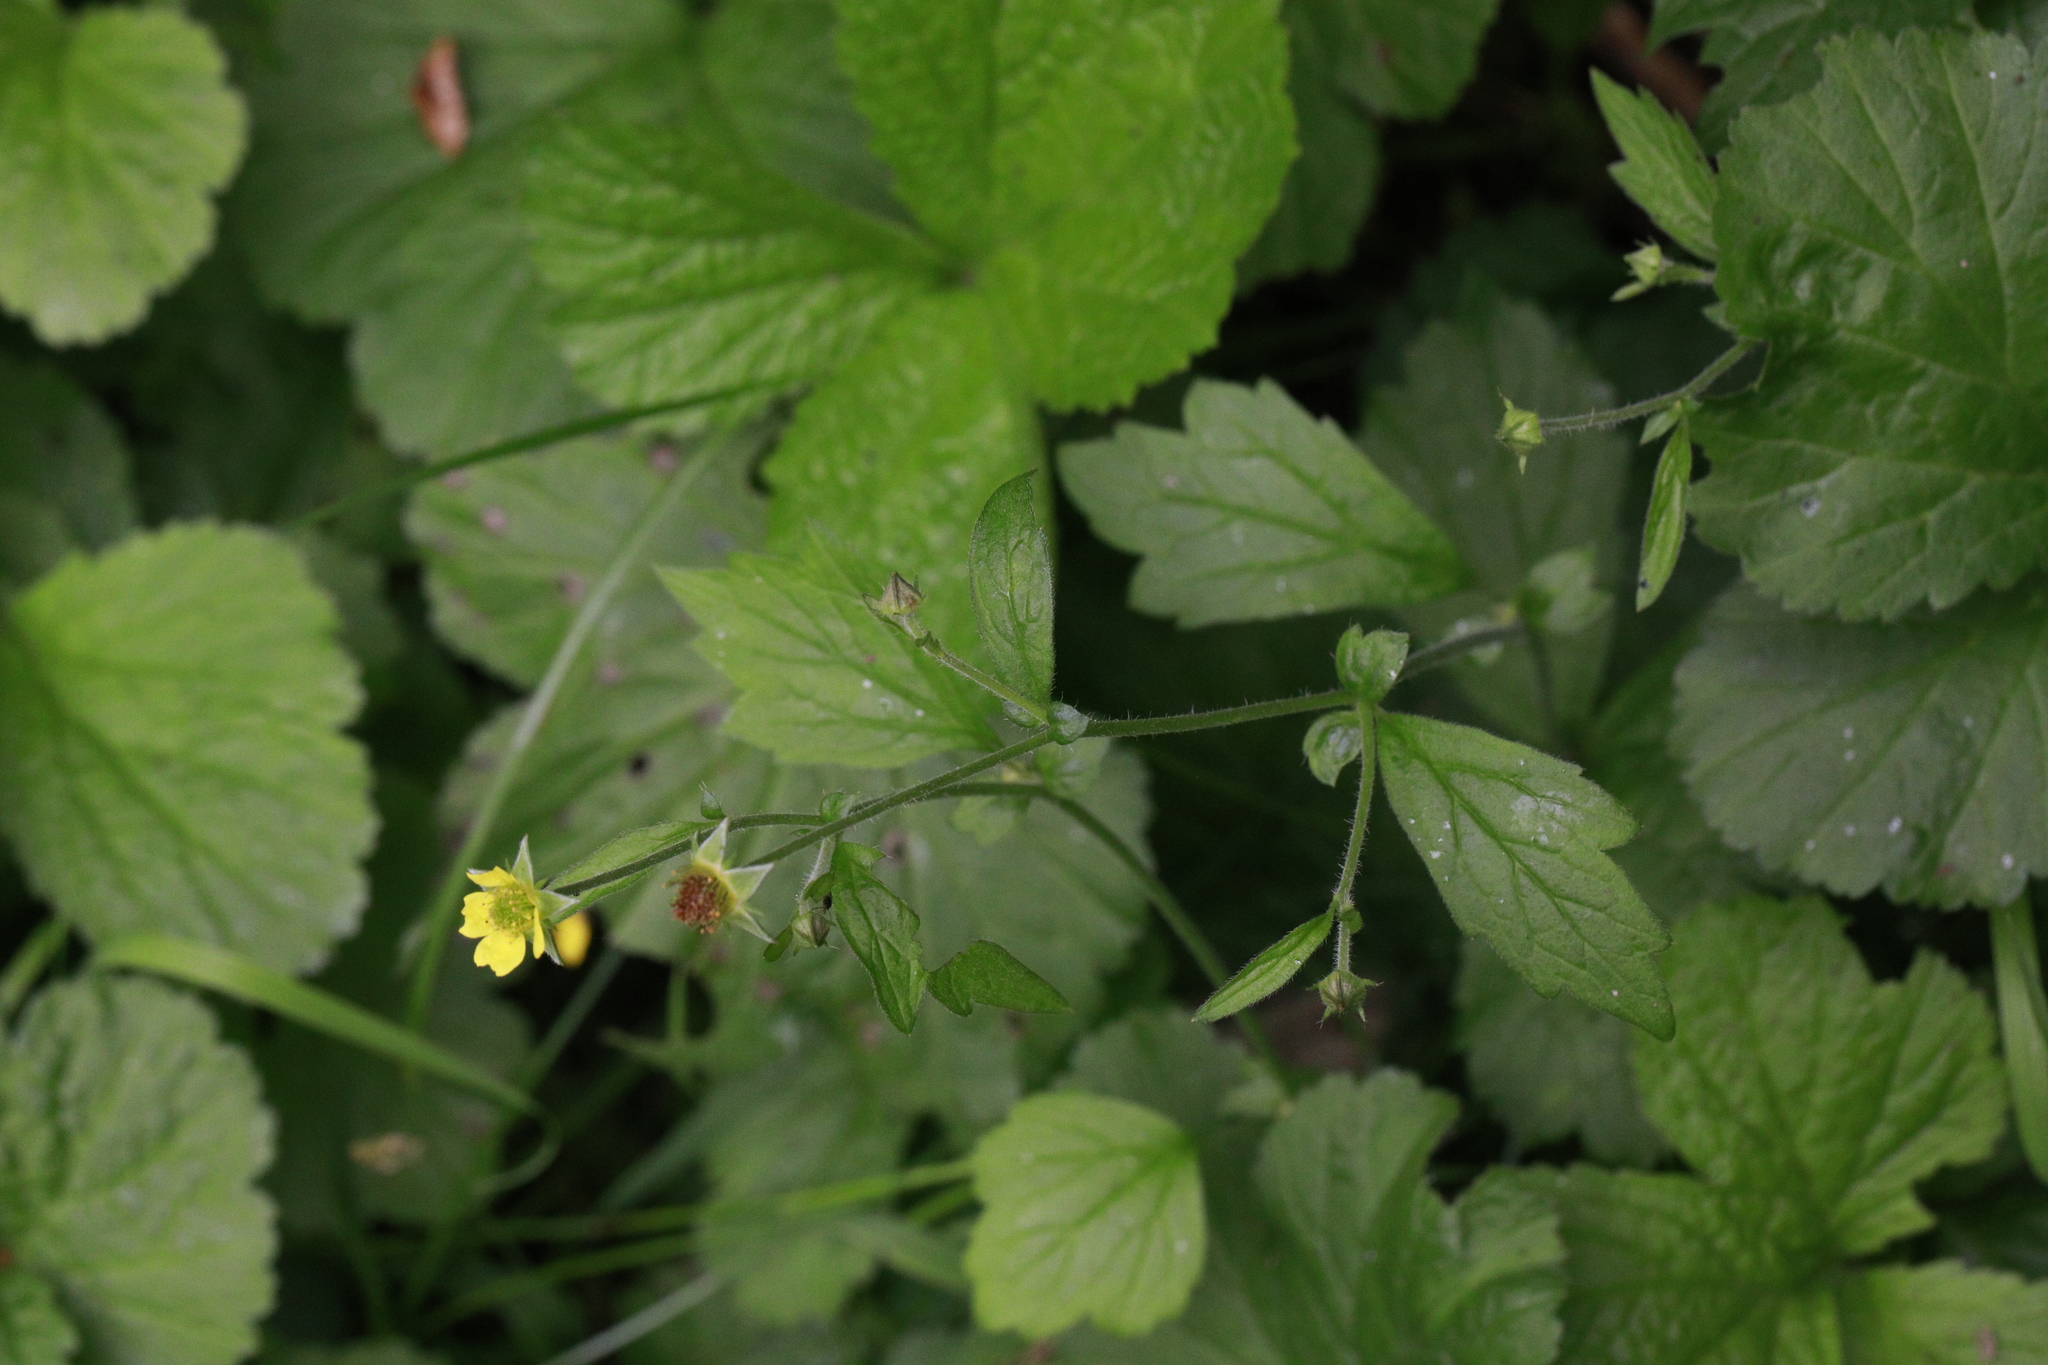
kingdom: Plantae
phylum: Tracheophyta
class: Magnoliopsida
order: Rosales
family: Rosaceae
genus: Geum
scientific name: Geum urbanum
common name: Wood avens
